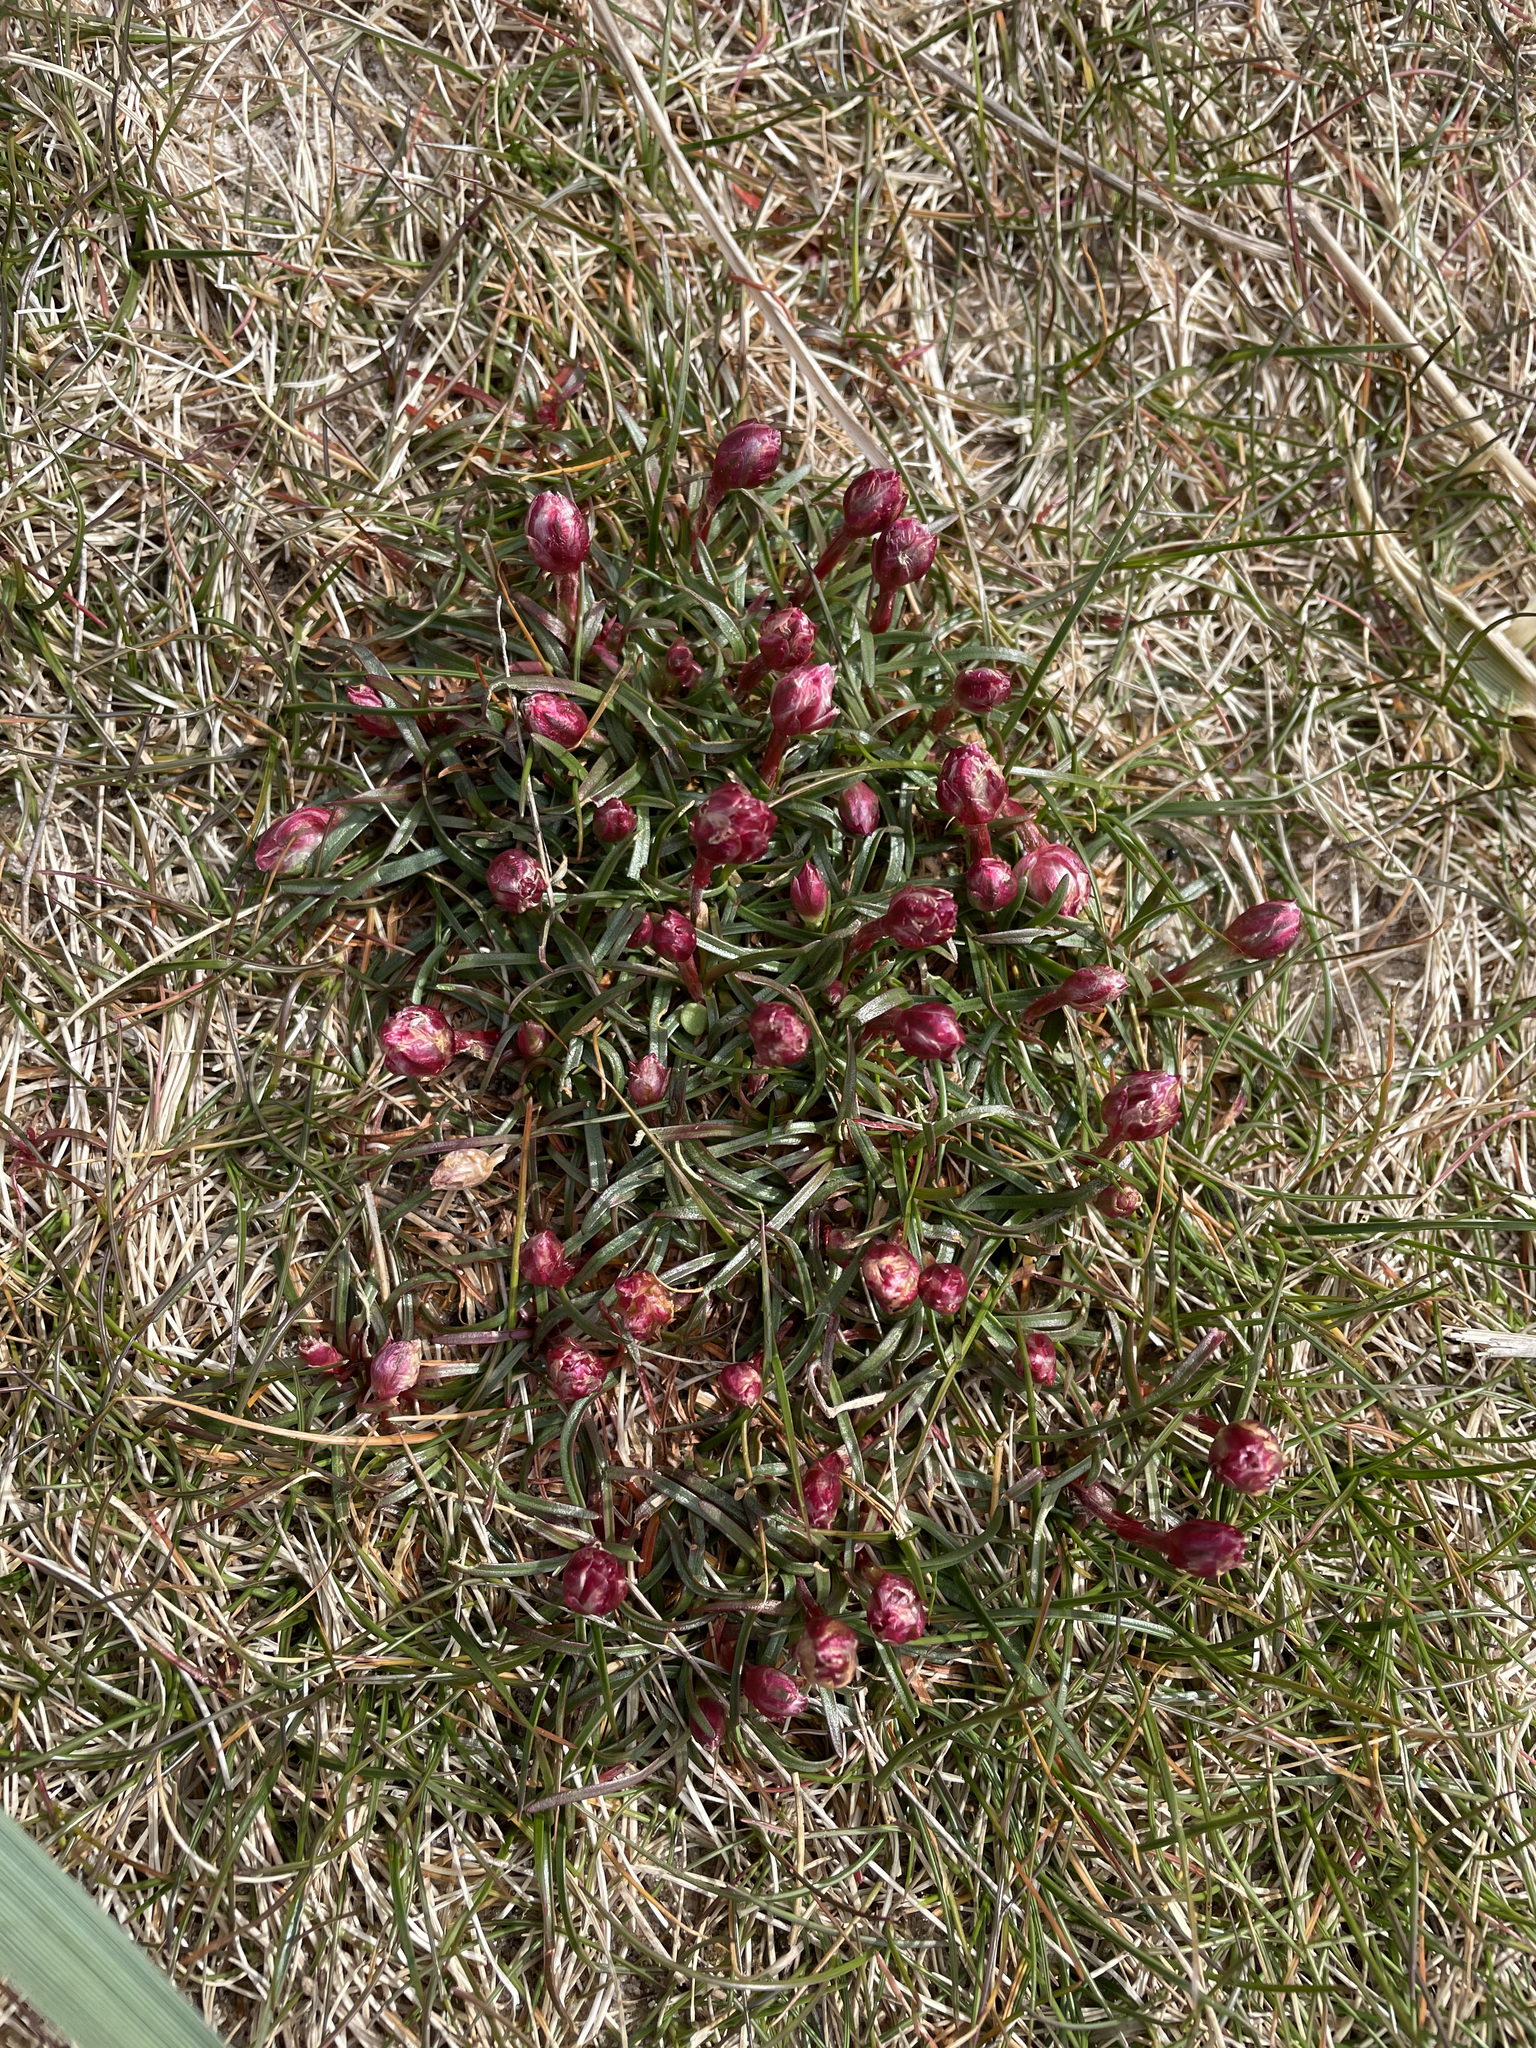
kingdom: Plantae
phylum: Tracheophyta
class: Magnoliopsida
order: Caryophyllales
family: Plumbaginaceae
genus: Armeria
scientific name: Armeria maritima
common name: Thrift
